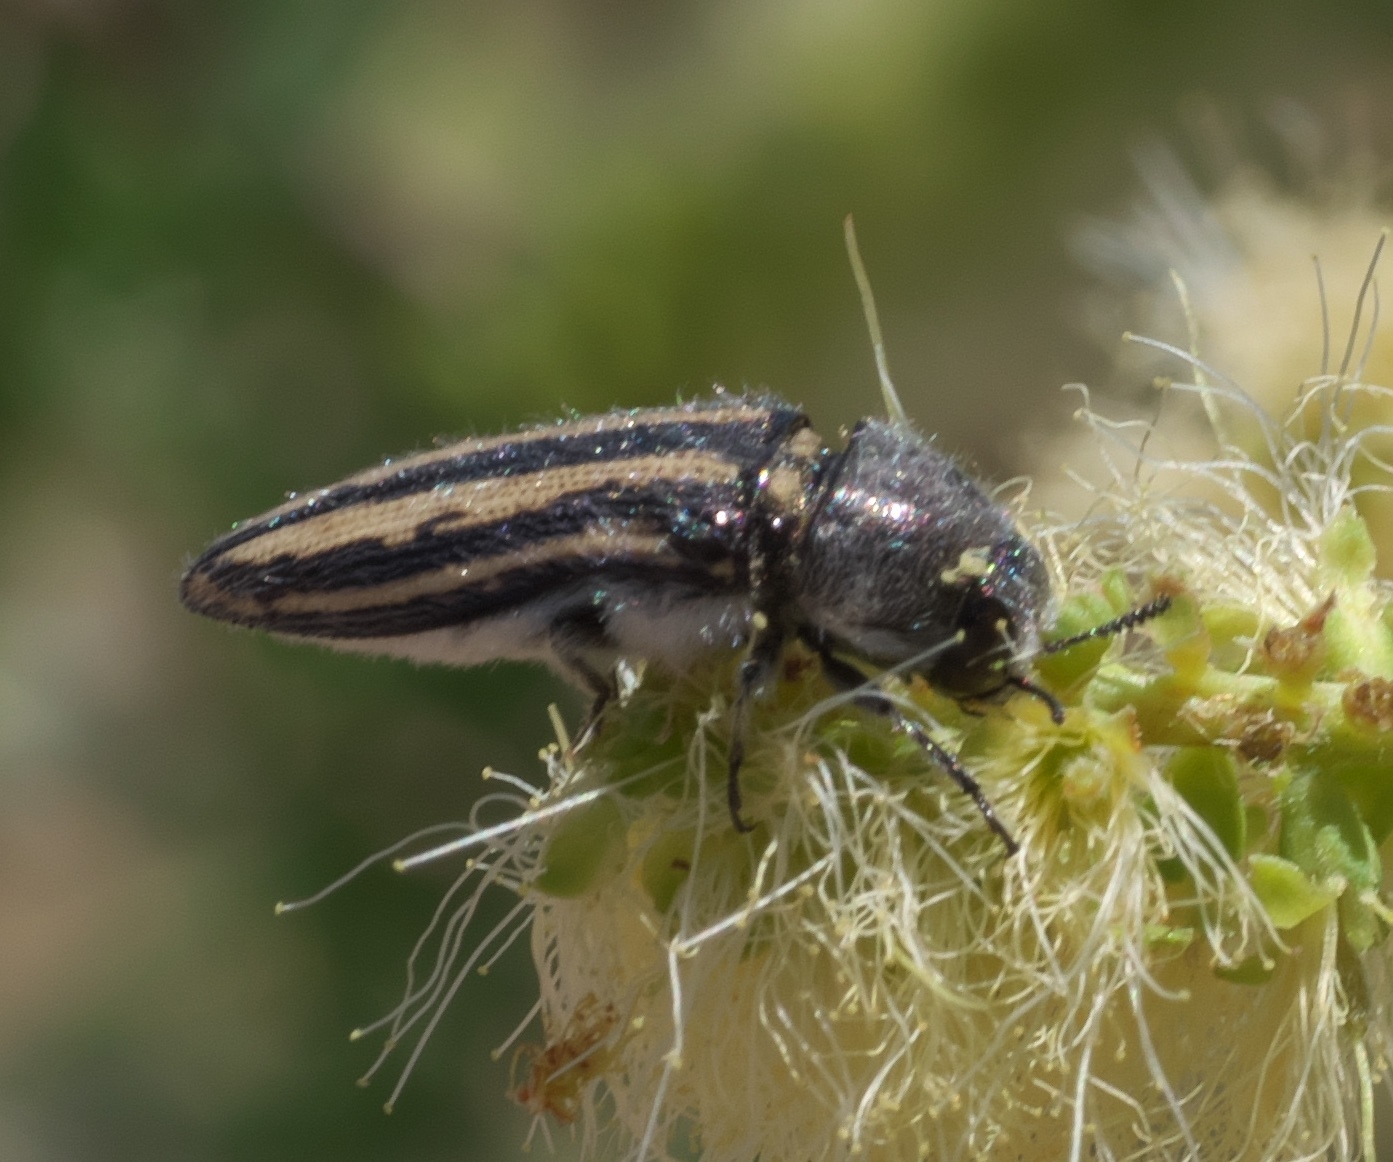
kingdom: Animalia
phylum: Arthropoda
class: Insecta
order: Coleoptera
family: Buprestidae
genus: Acmaeodera
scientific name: Acmaeodera pubiventris
